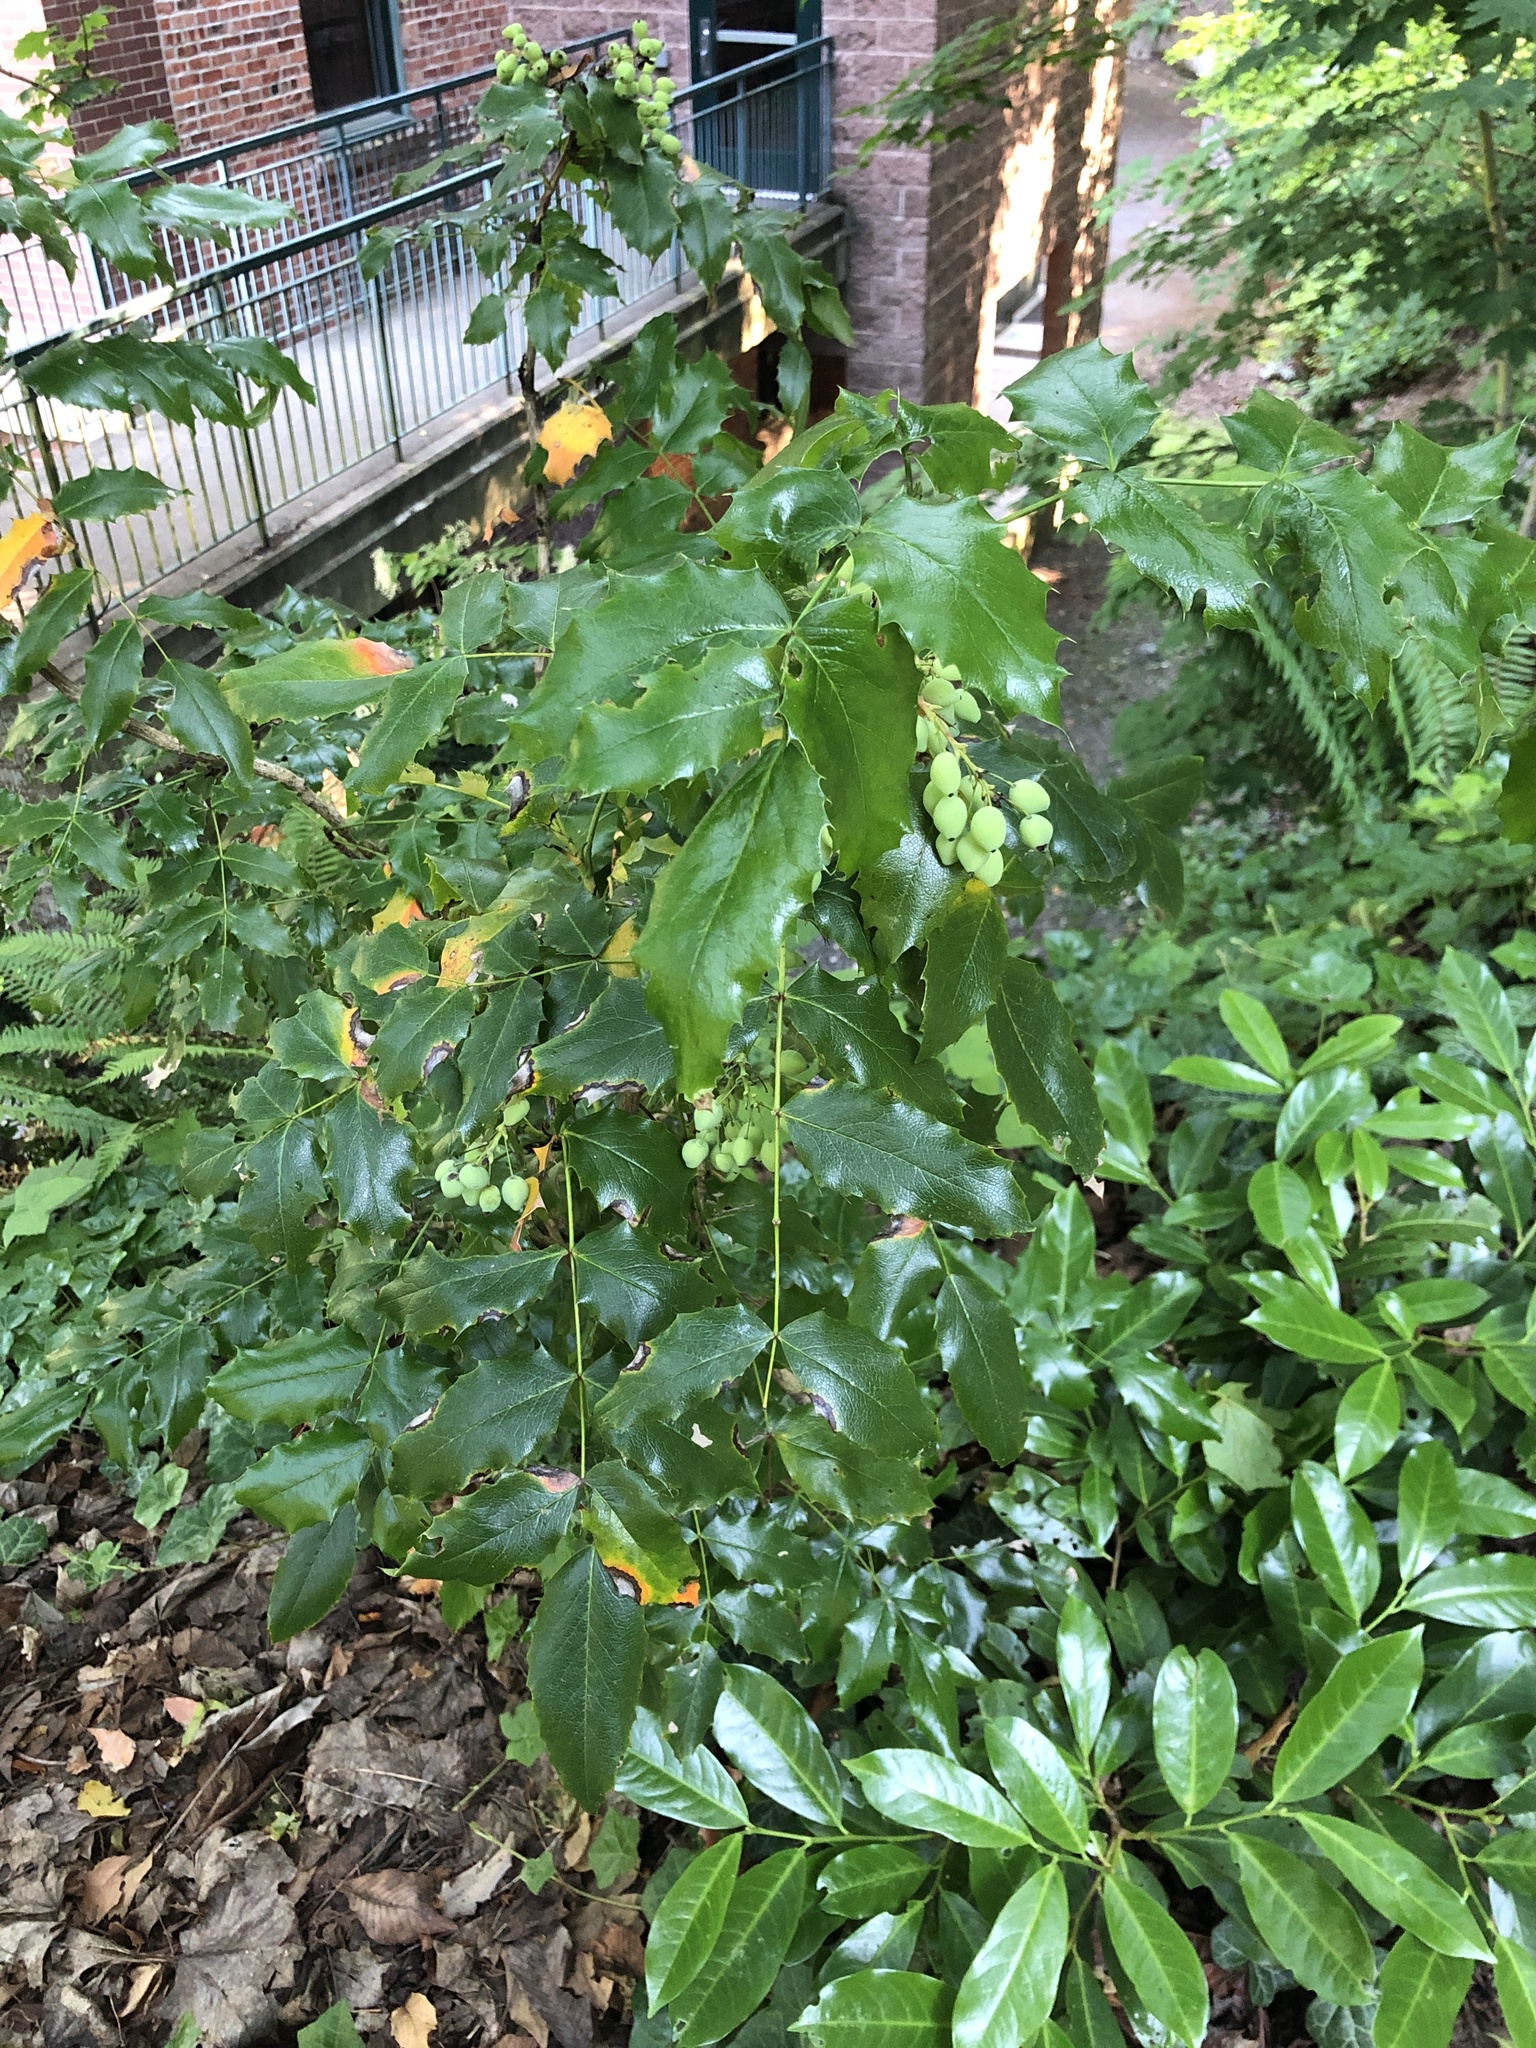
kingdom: Plantae
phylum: Tracheophyta
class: Magnoliopsida
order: Ranunculales
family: Berberidaceae
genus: Mahonia
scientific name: Mahonia aquifolium
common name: Oregon-grape
